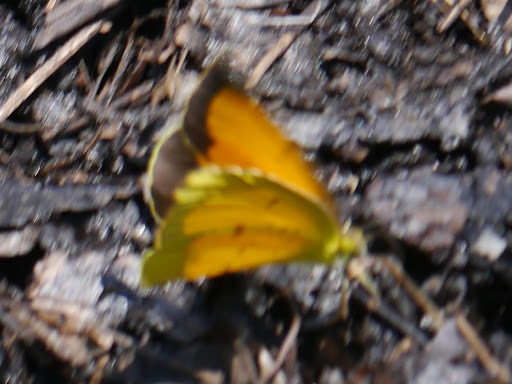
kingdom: Animalia
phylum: Arthropoda
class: Insecta
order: Lepidoptera
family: Pieridae
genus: Abaeis
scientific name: Abaeis nicippe
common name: Sleepy orange
